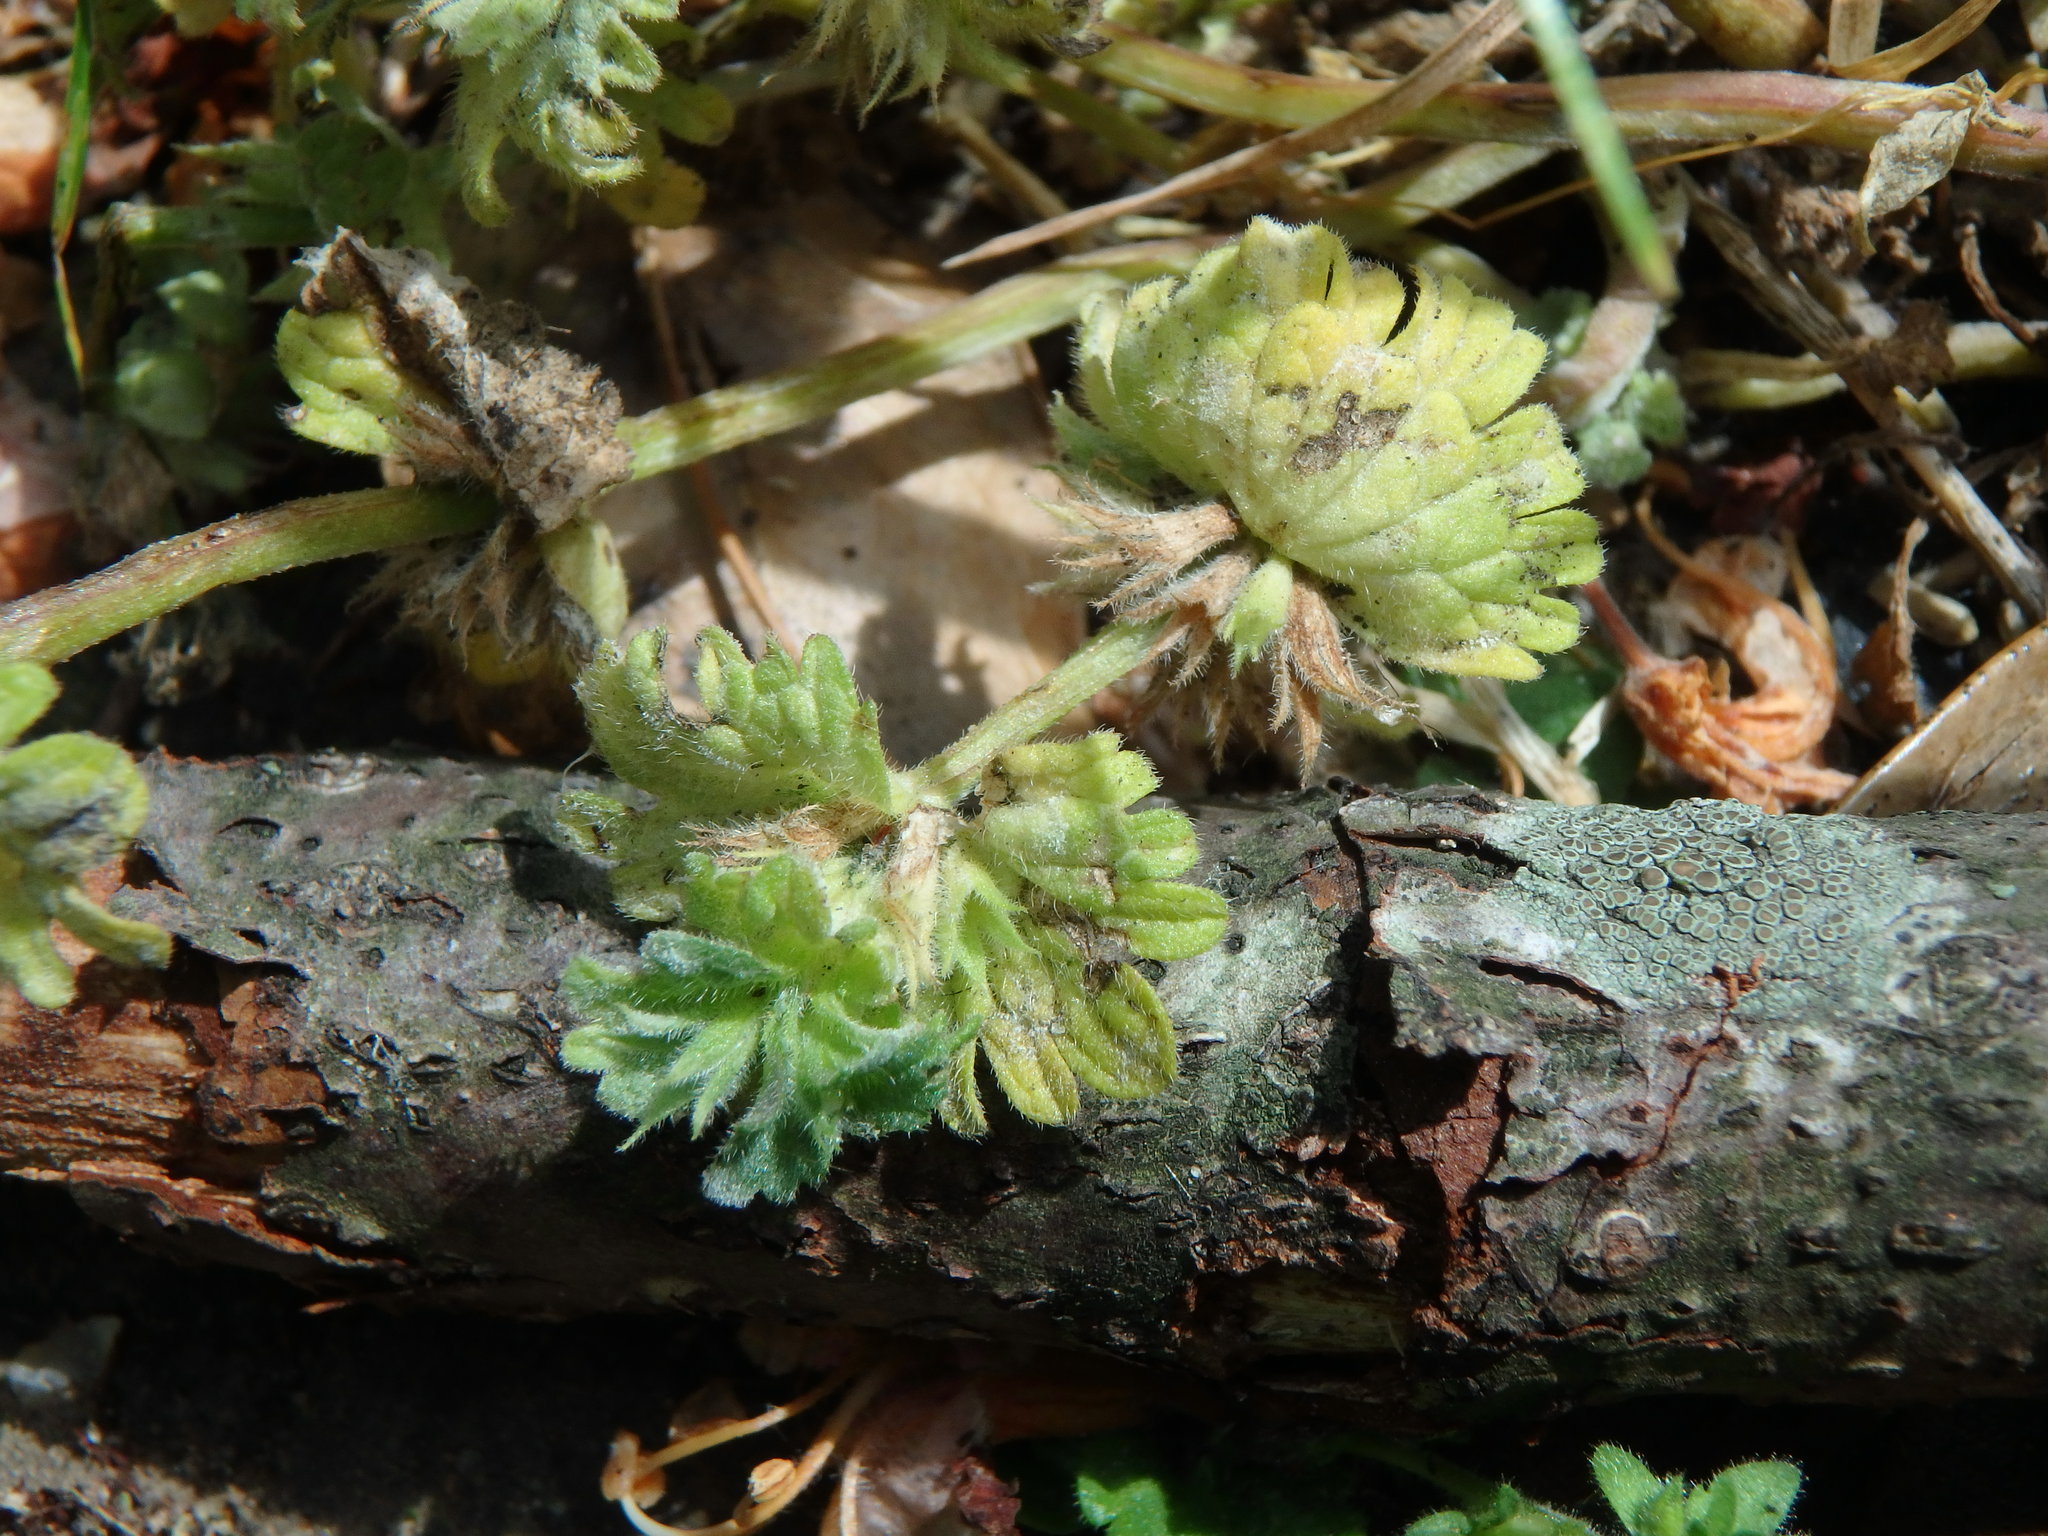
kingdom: Plantae
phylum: Tracheophyta
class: Magnoliopsida
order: Lamiales
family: Lamiaceae
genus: Lamium
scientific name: Lamium amplexicaule
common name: Henbit dead-nettle
